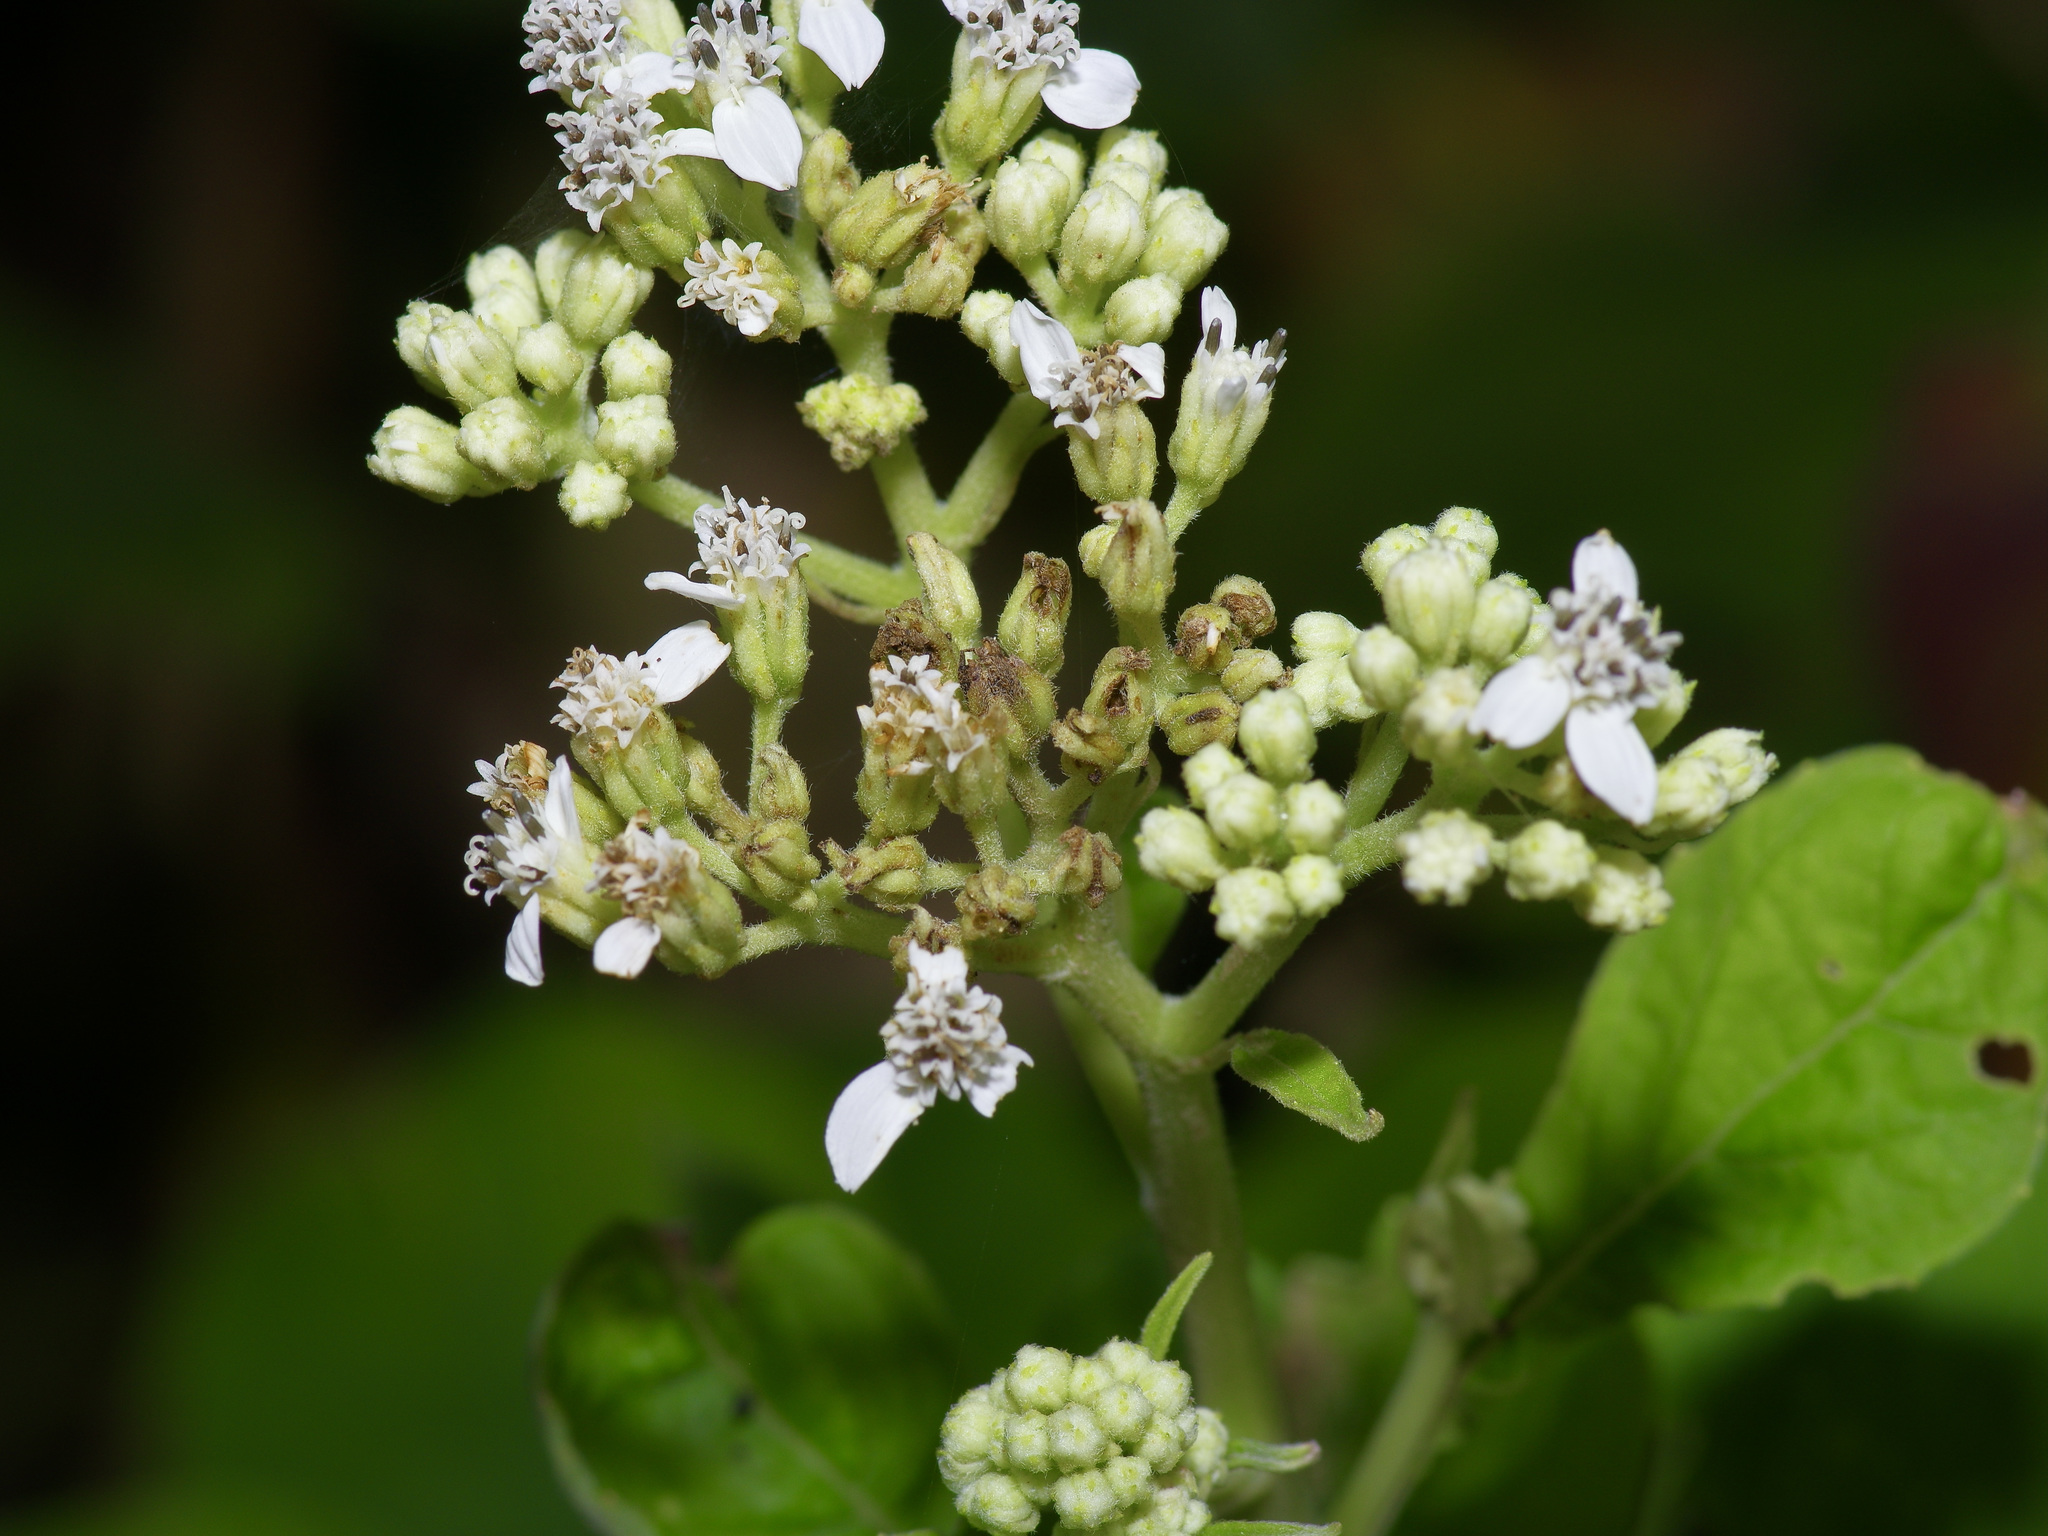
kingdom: Plantae
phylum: Tracheophyta
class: Magnoliopsida
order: Asterales
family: Asteraceae
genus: Verbesina
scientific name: Verbesina virginica
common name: Frostweed
